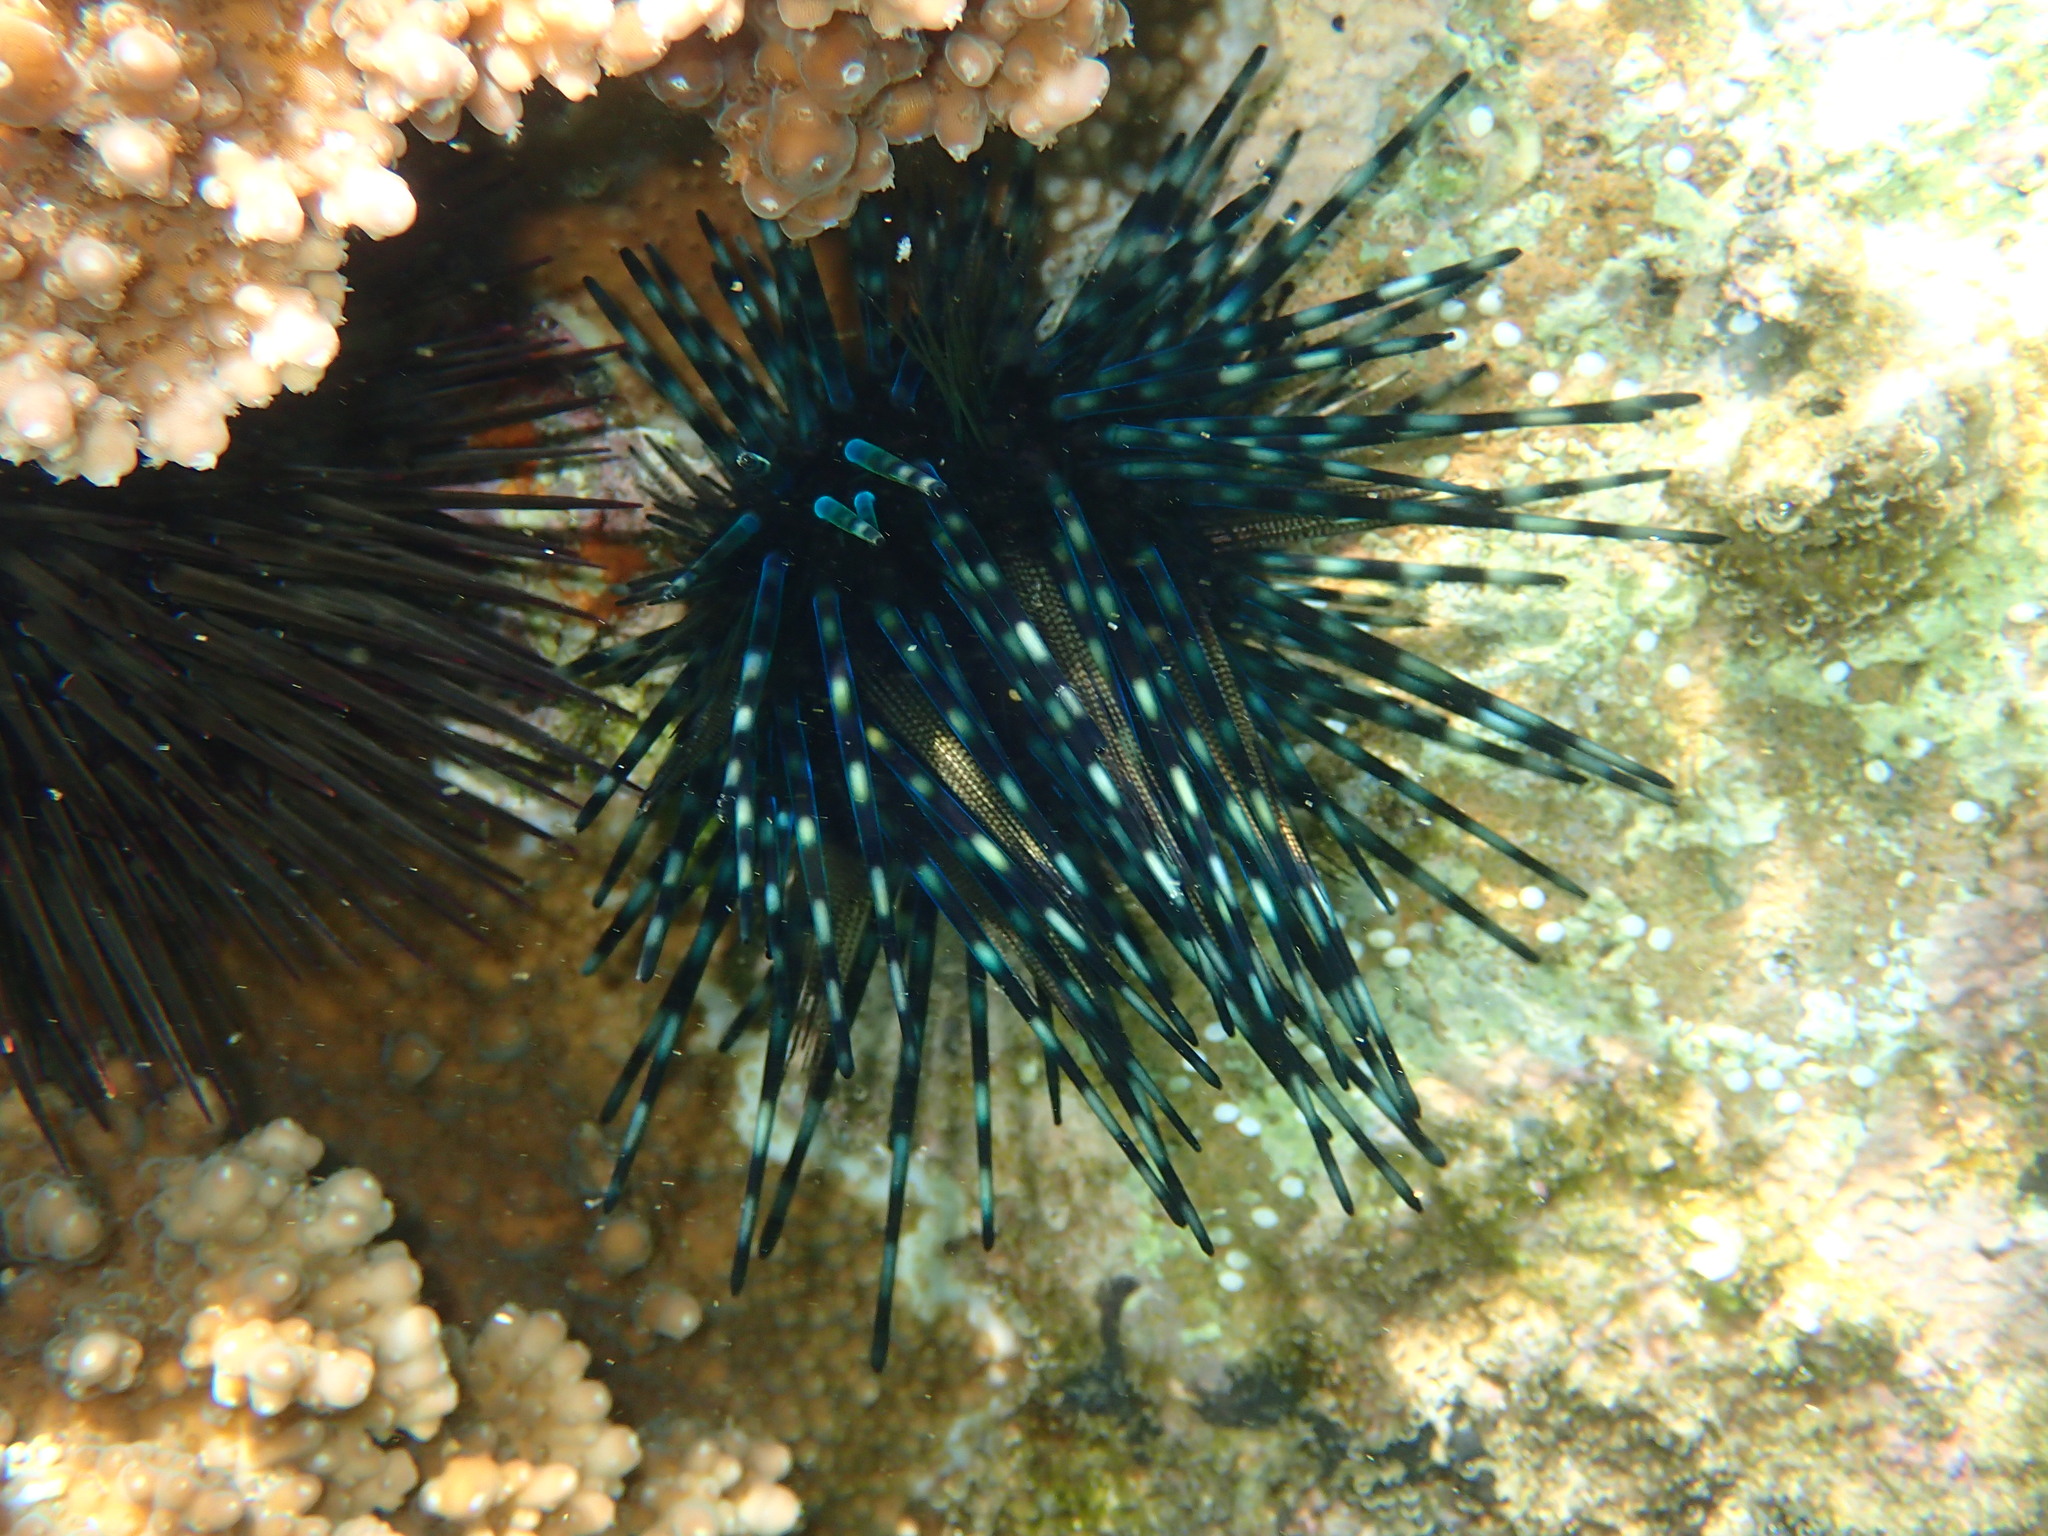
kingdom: Animalia
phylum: Echinodermata
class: Echinoidea
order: Diadematoida
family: Diadematidae
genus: Echinothrix
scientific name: Echinothrix diadema
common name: Schwarzer diademseeigel
